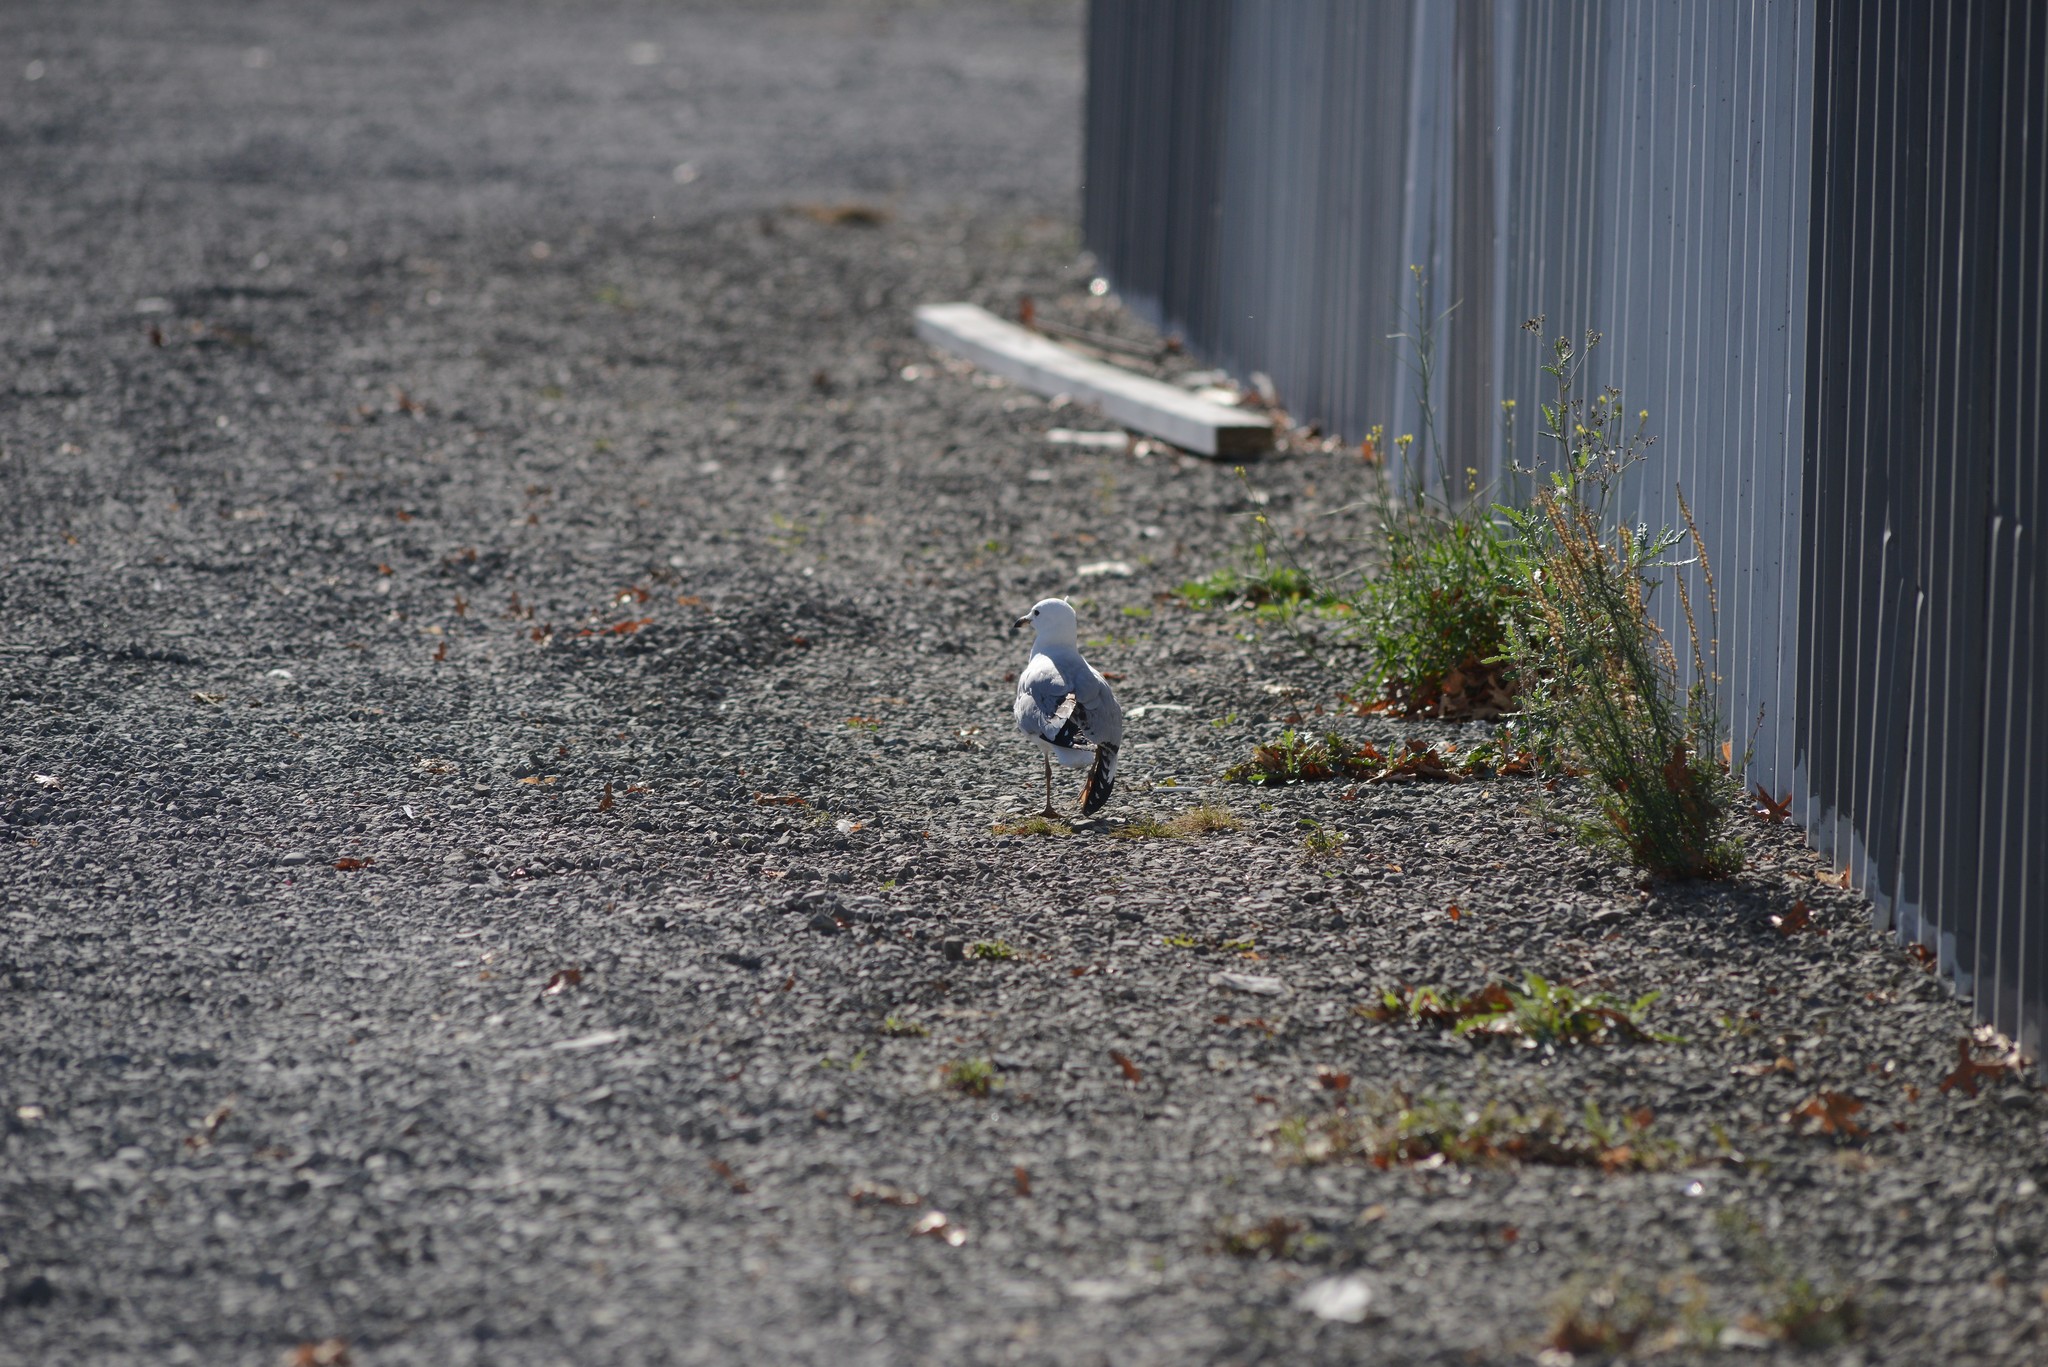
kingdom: Animalia
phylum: Chordata
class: Aves
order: Charadriiformes
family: Laridae
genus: Chroicocephalus
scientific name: Chroicocephalus novaehollandiae
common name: Silver gull
